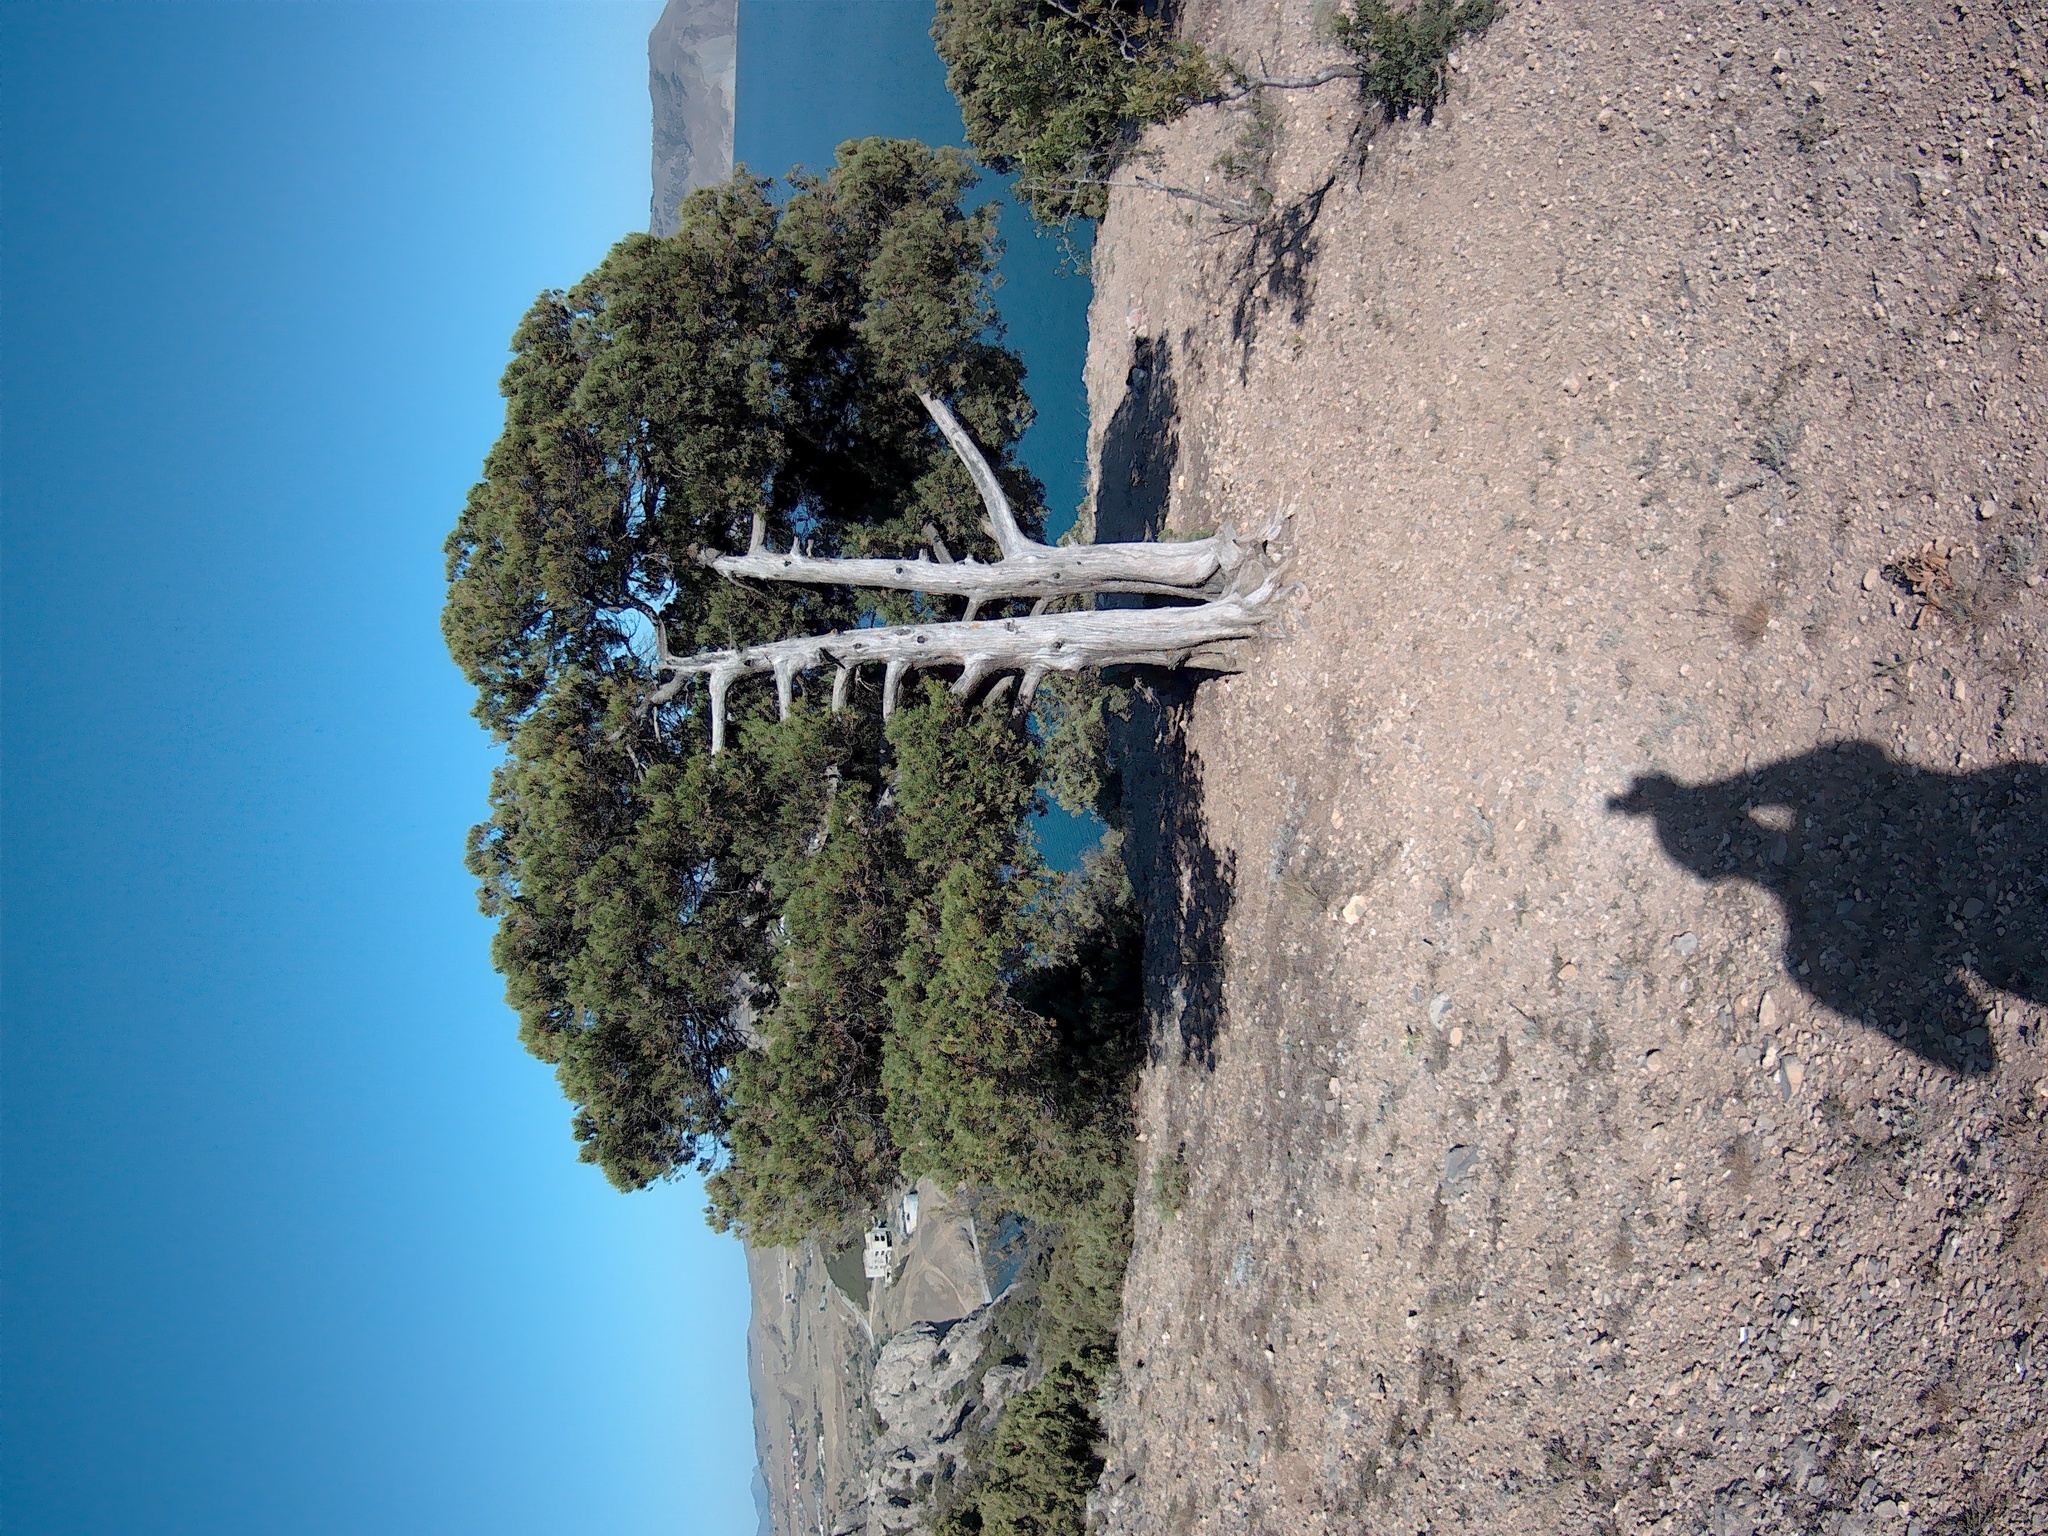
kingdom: Plantae
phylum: Tracheophyta
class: Pinopsida
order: Pinales
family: Cupressaceae
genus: Juniperus
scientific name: Juniperus excelsa
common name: Crimean juniper
